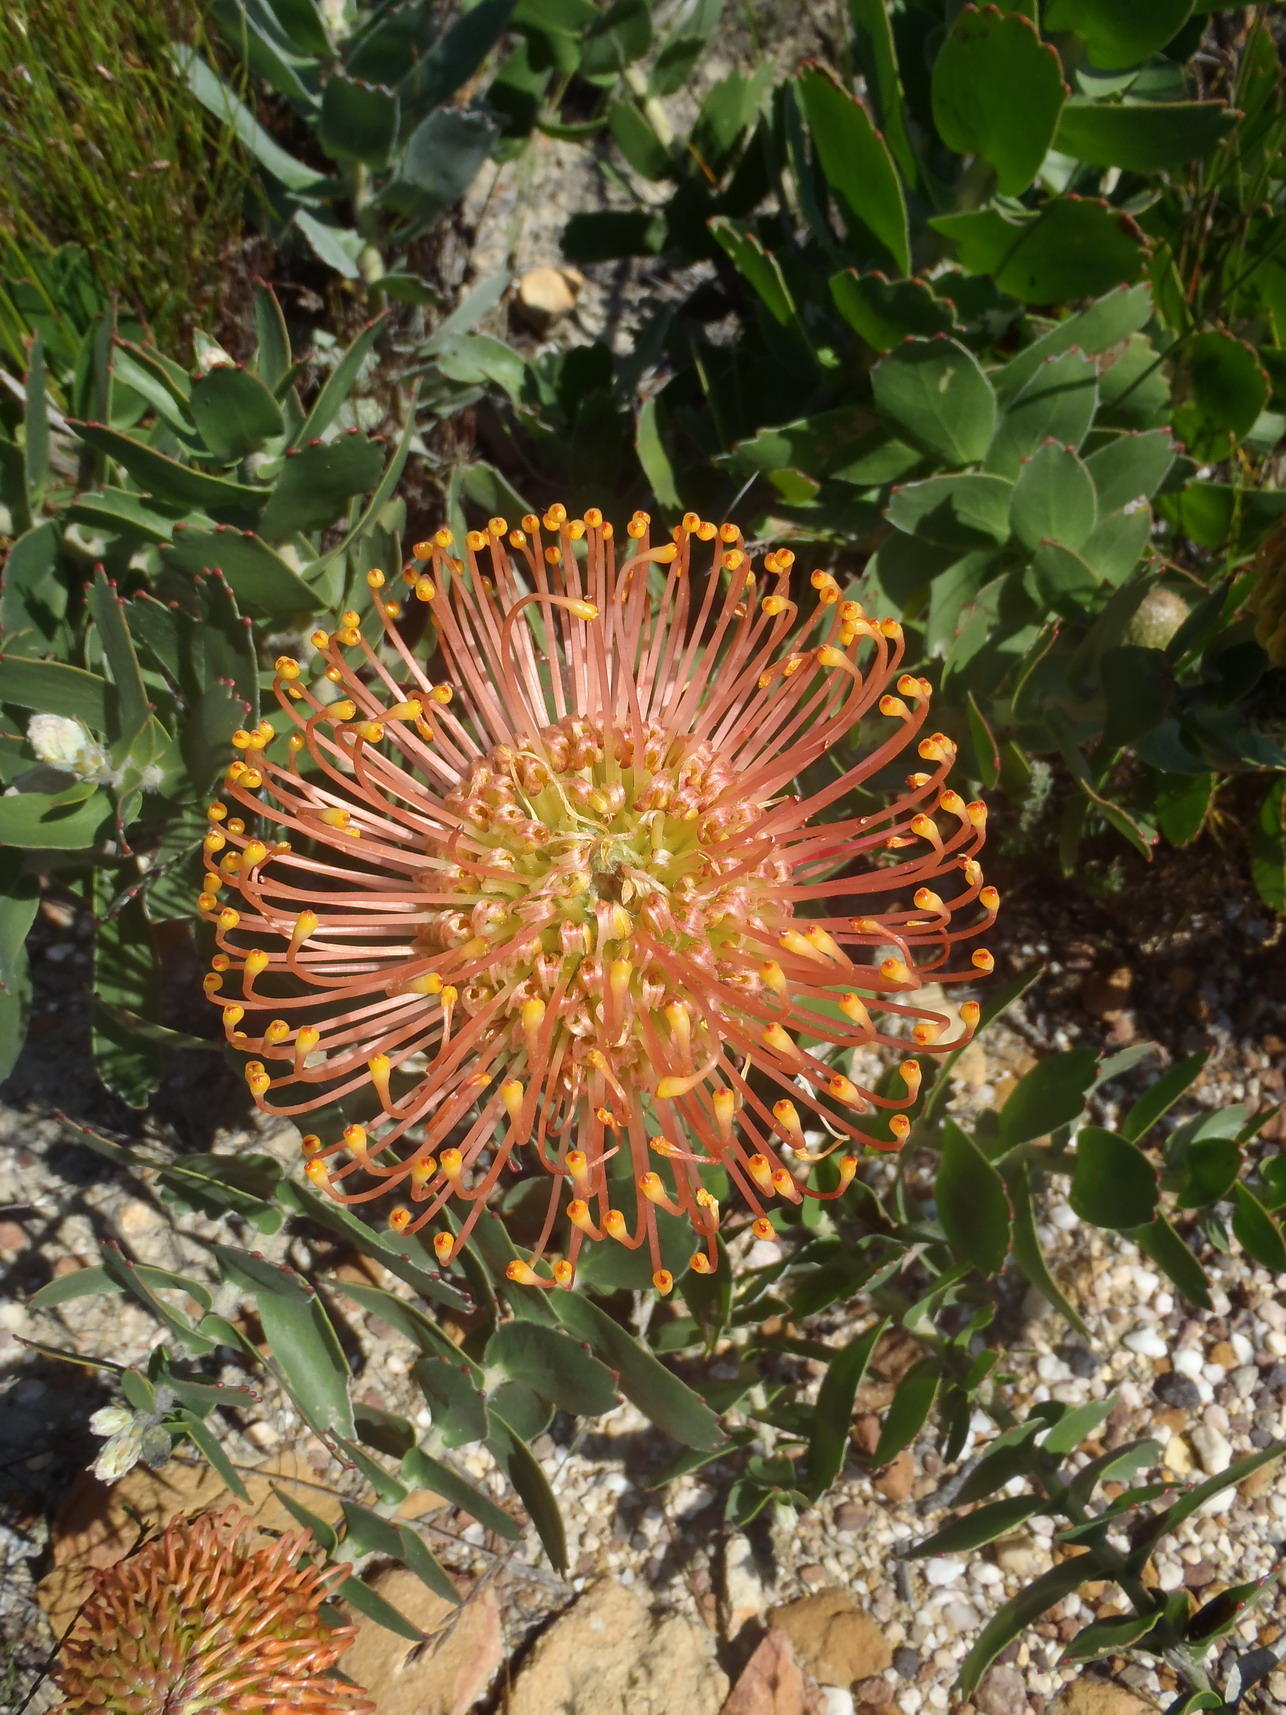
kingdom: Plantae
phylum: Tracheophyta
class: Magnoliopsida
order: Proteales
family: Proteaceae
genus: Leucospermum
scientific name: Leucospermum cordifolium
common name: Red pincushion-protea
